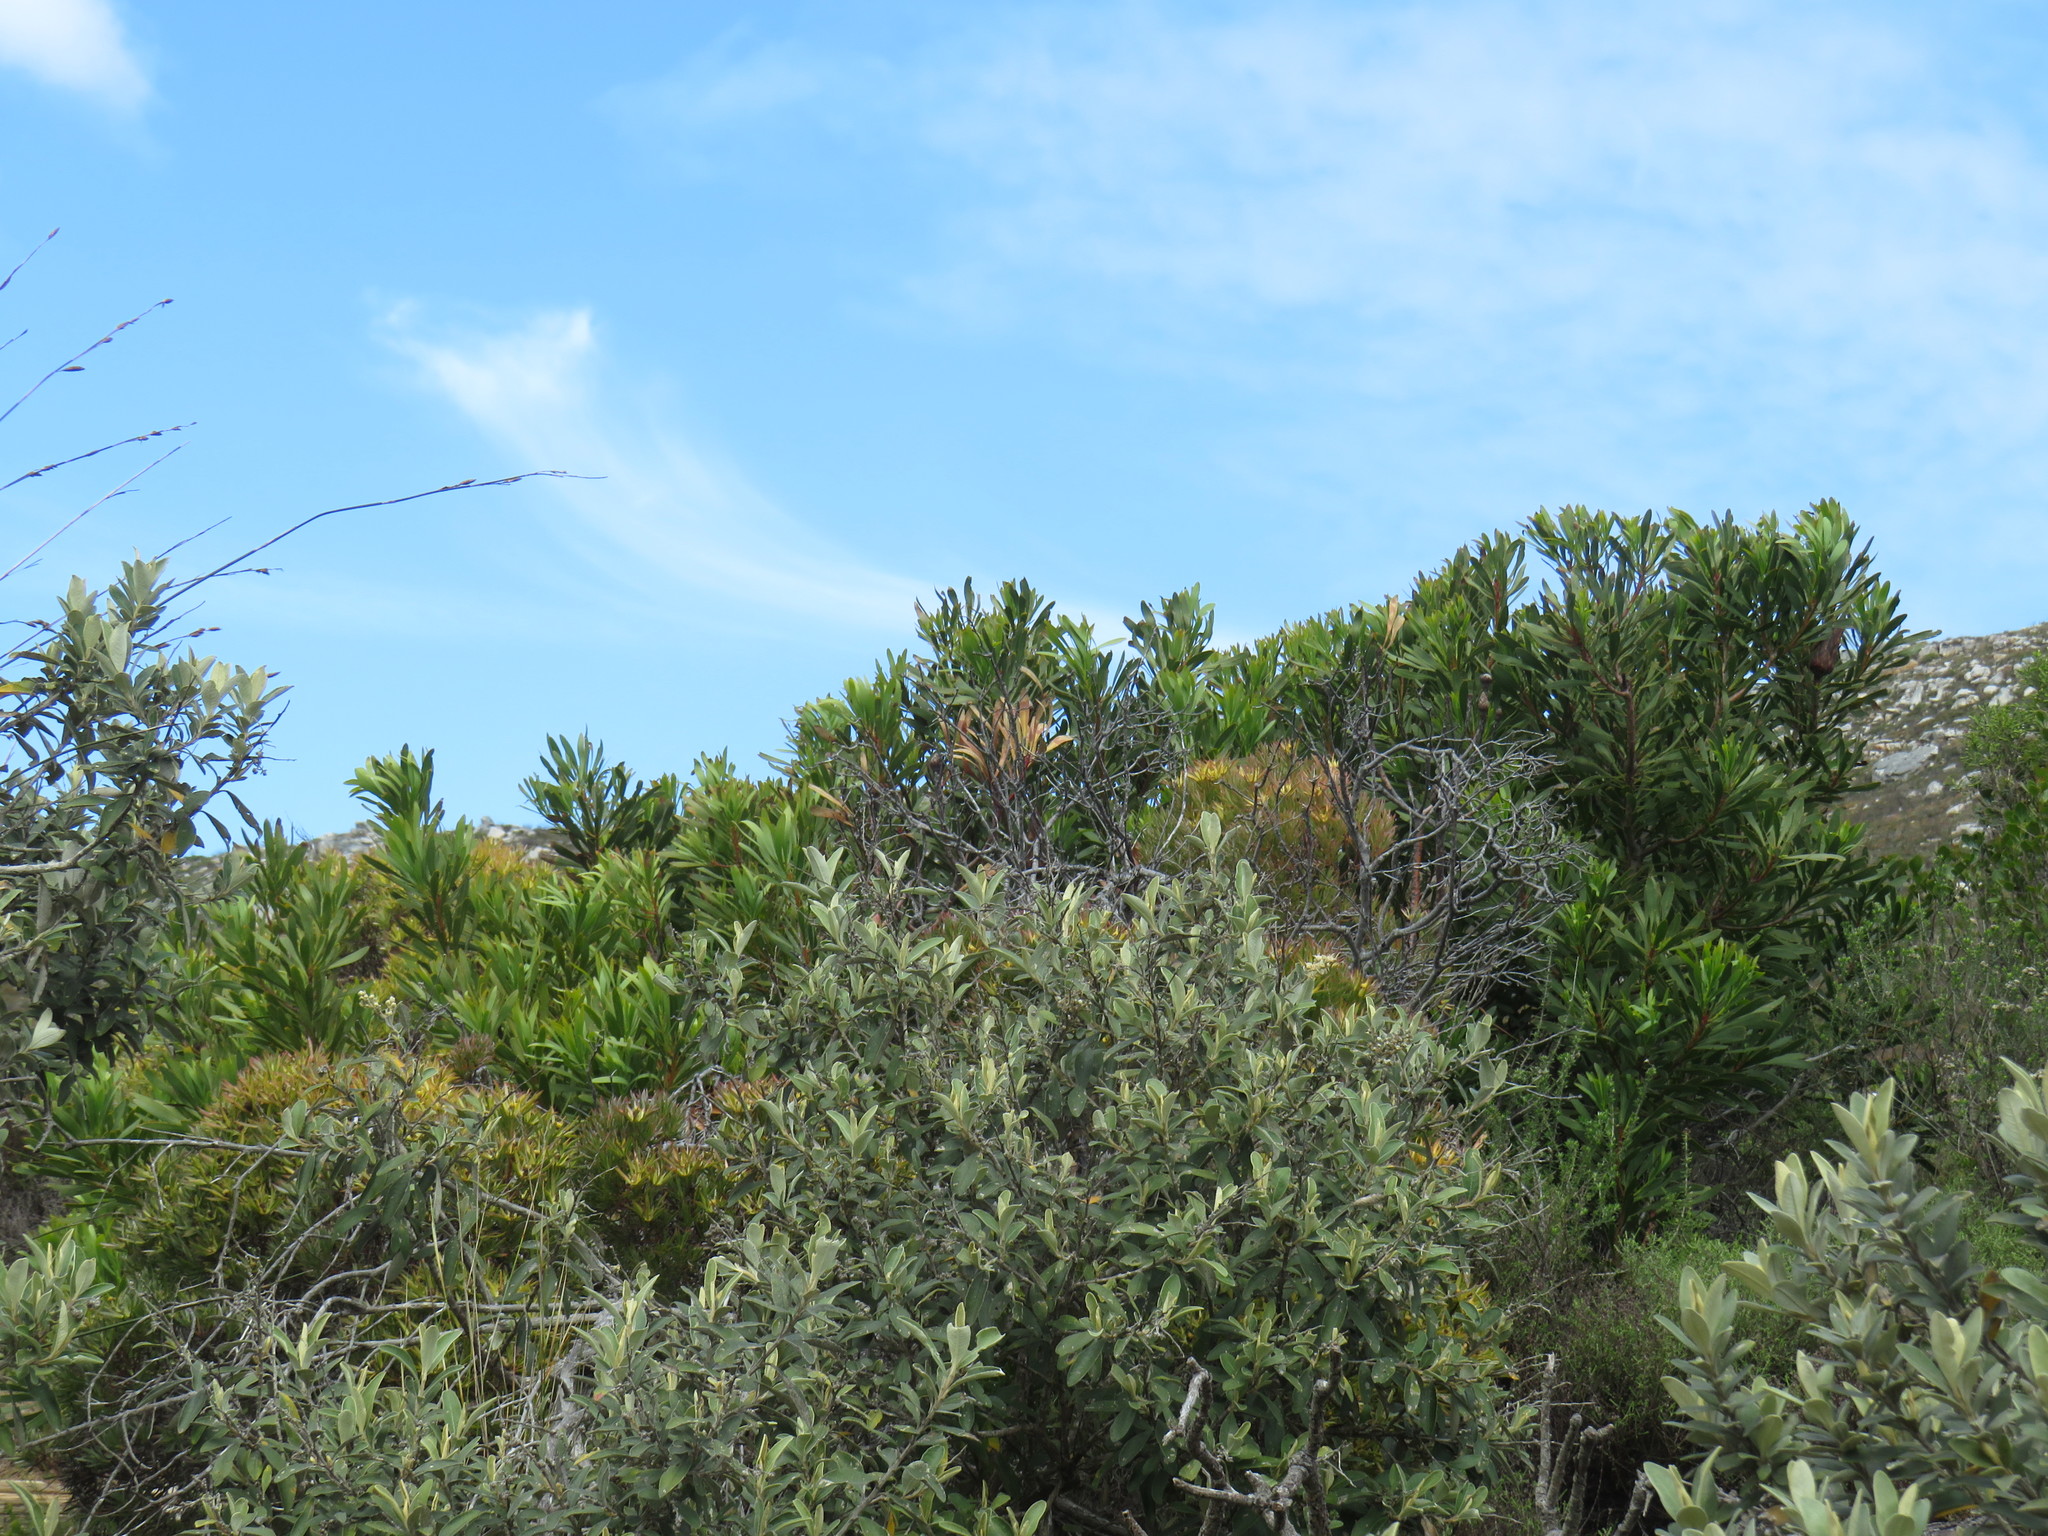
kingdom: Plantae
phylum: Tracheophyta
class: Magnoliopsida
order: Proteales
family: Proteaceae
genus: Protea
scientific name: Protea repens
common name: Sugarbush
